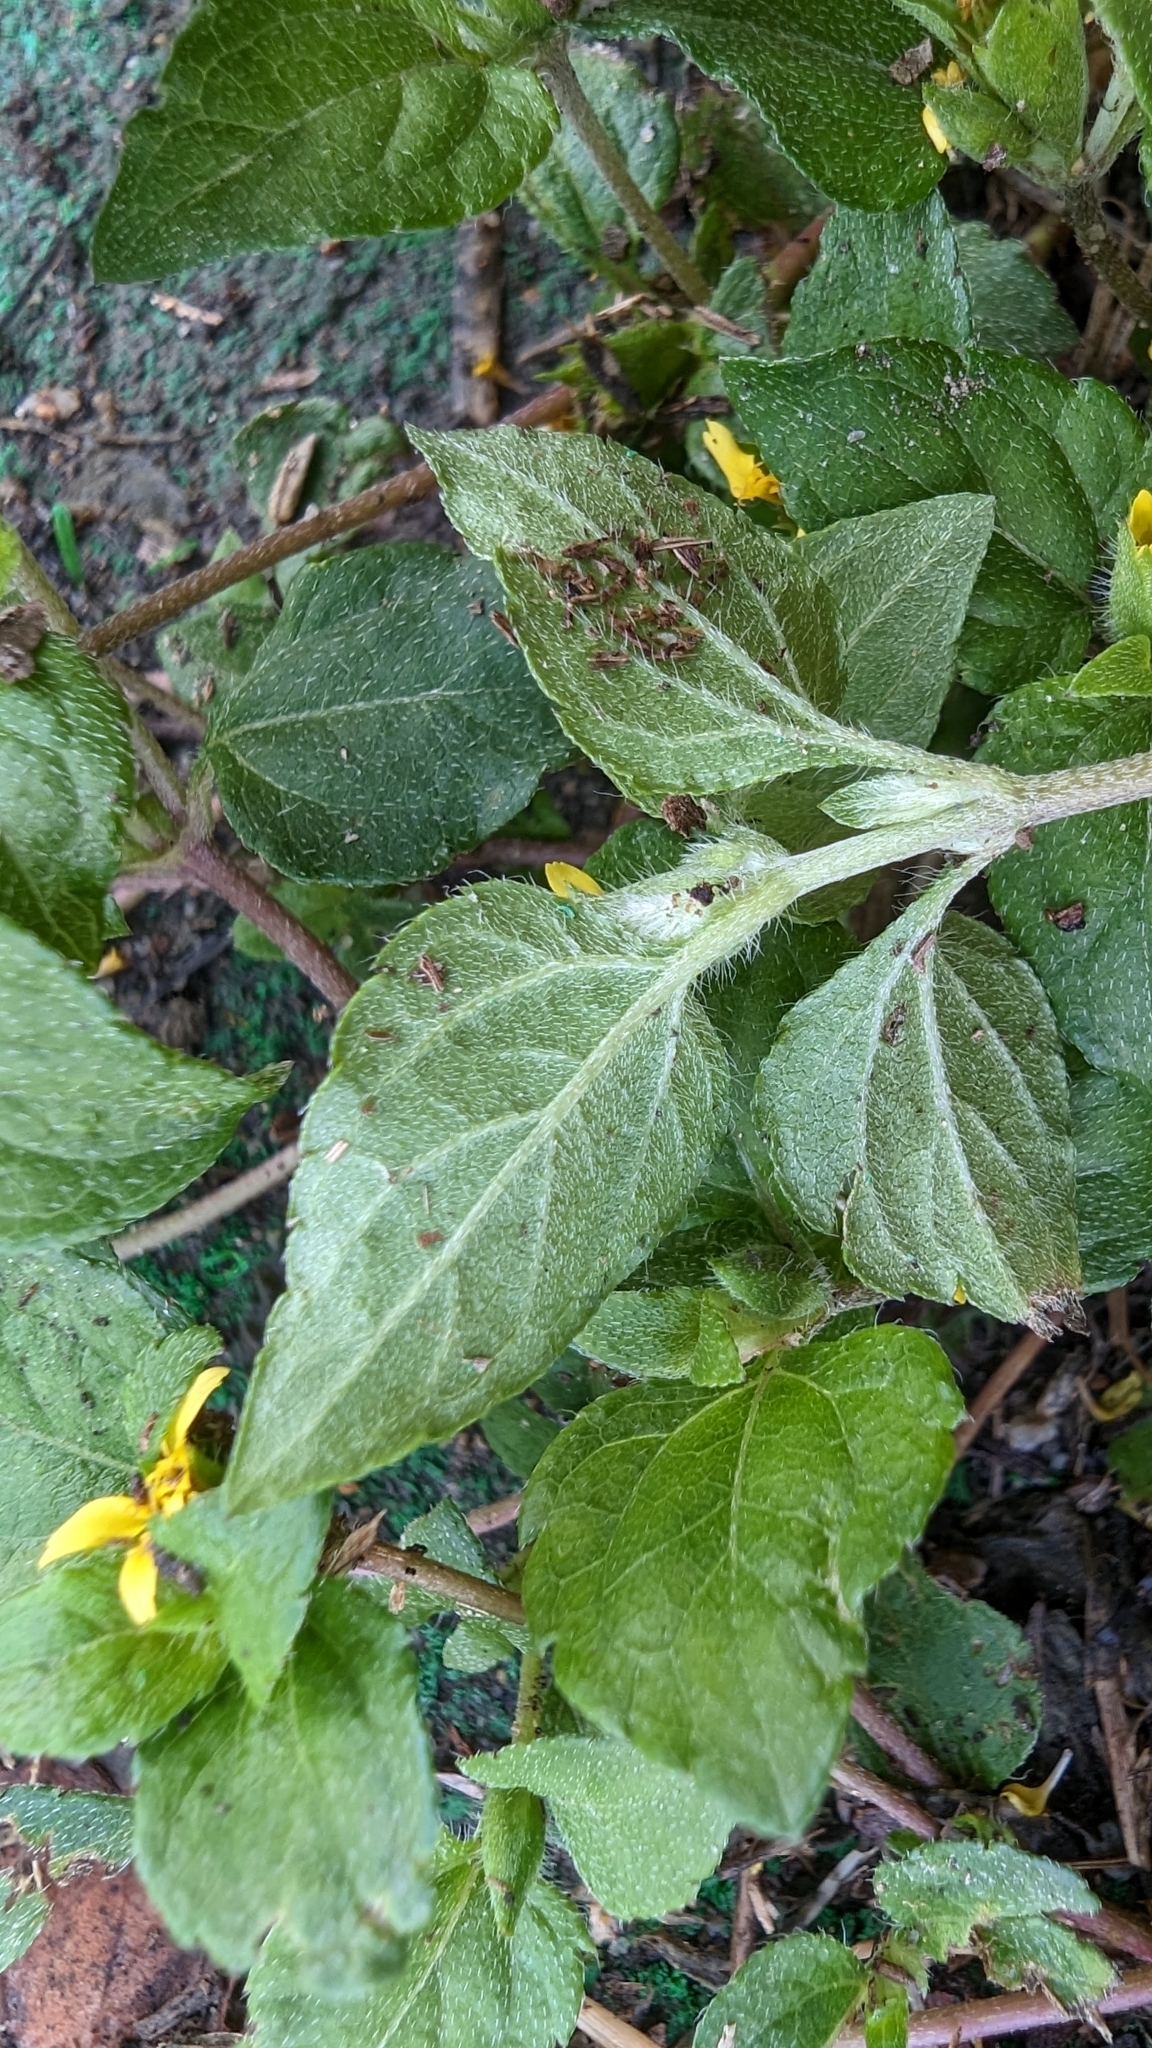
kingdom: Plantae
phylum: Tracheophyta
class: Magnoliopsida
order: Asterales
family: Asteraceae
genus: Calyptocarpus
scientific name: Calyptocarpus vialis
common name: Straggler daisy
